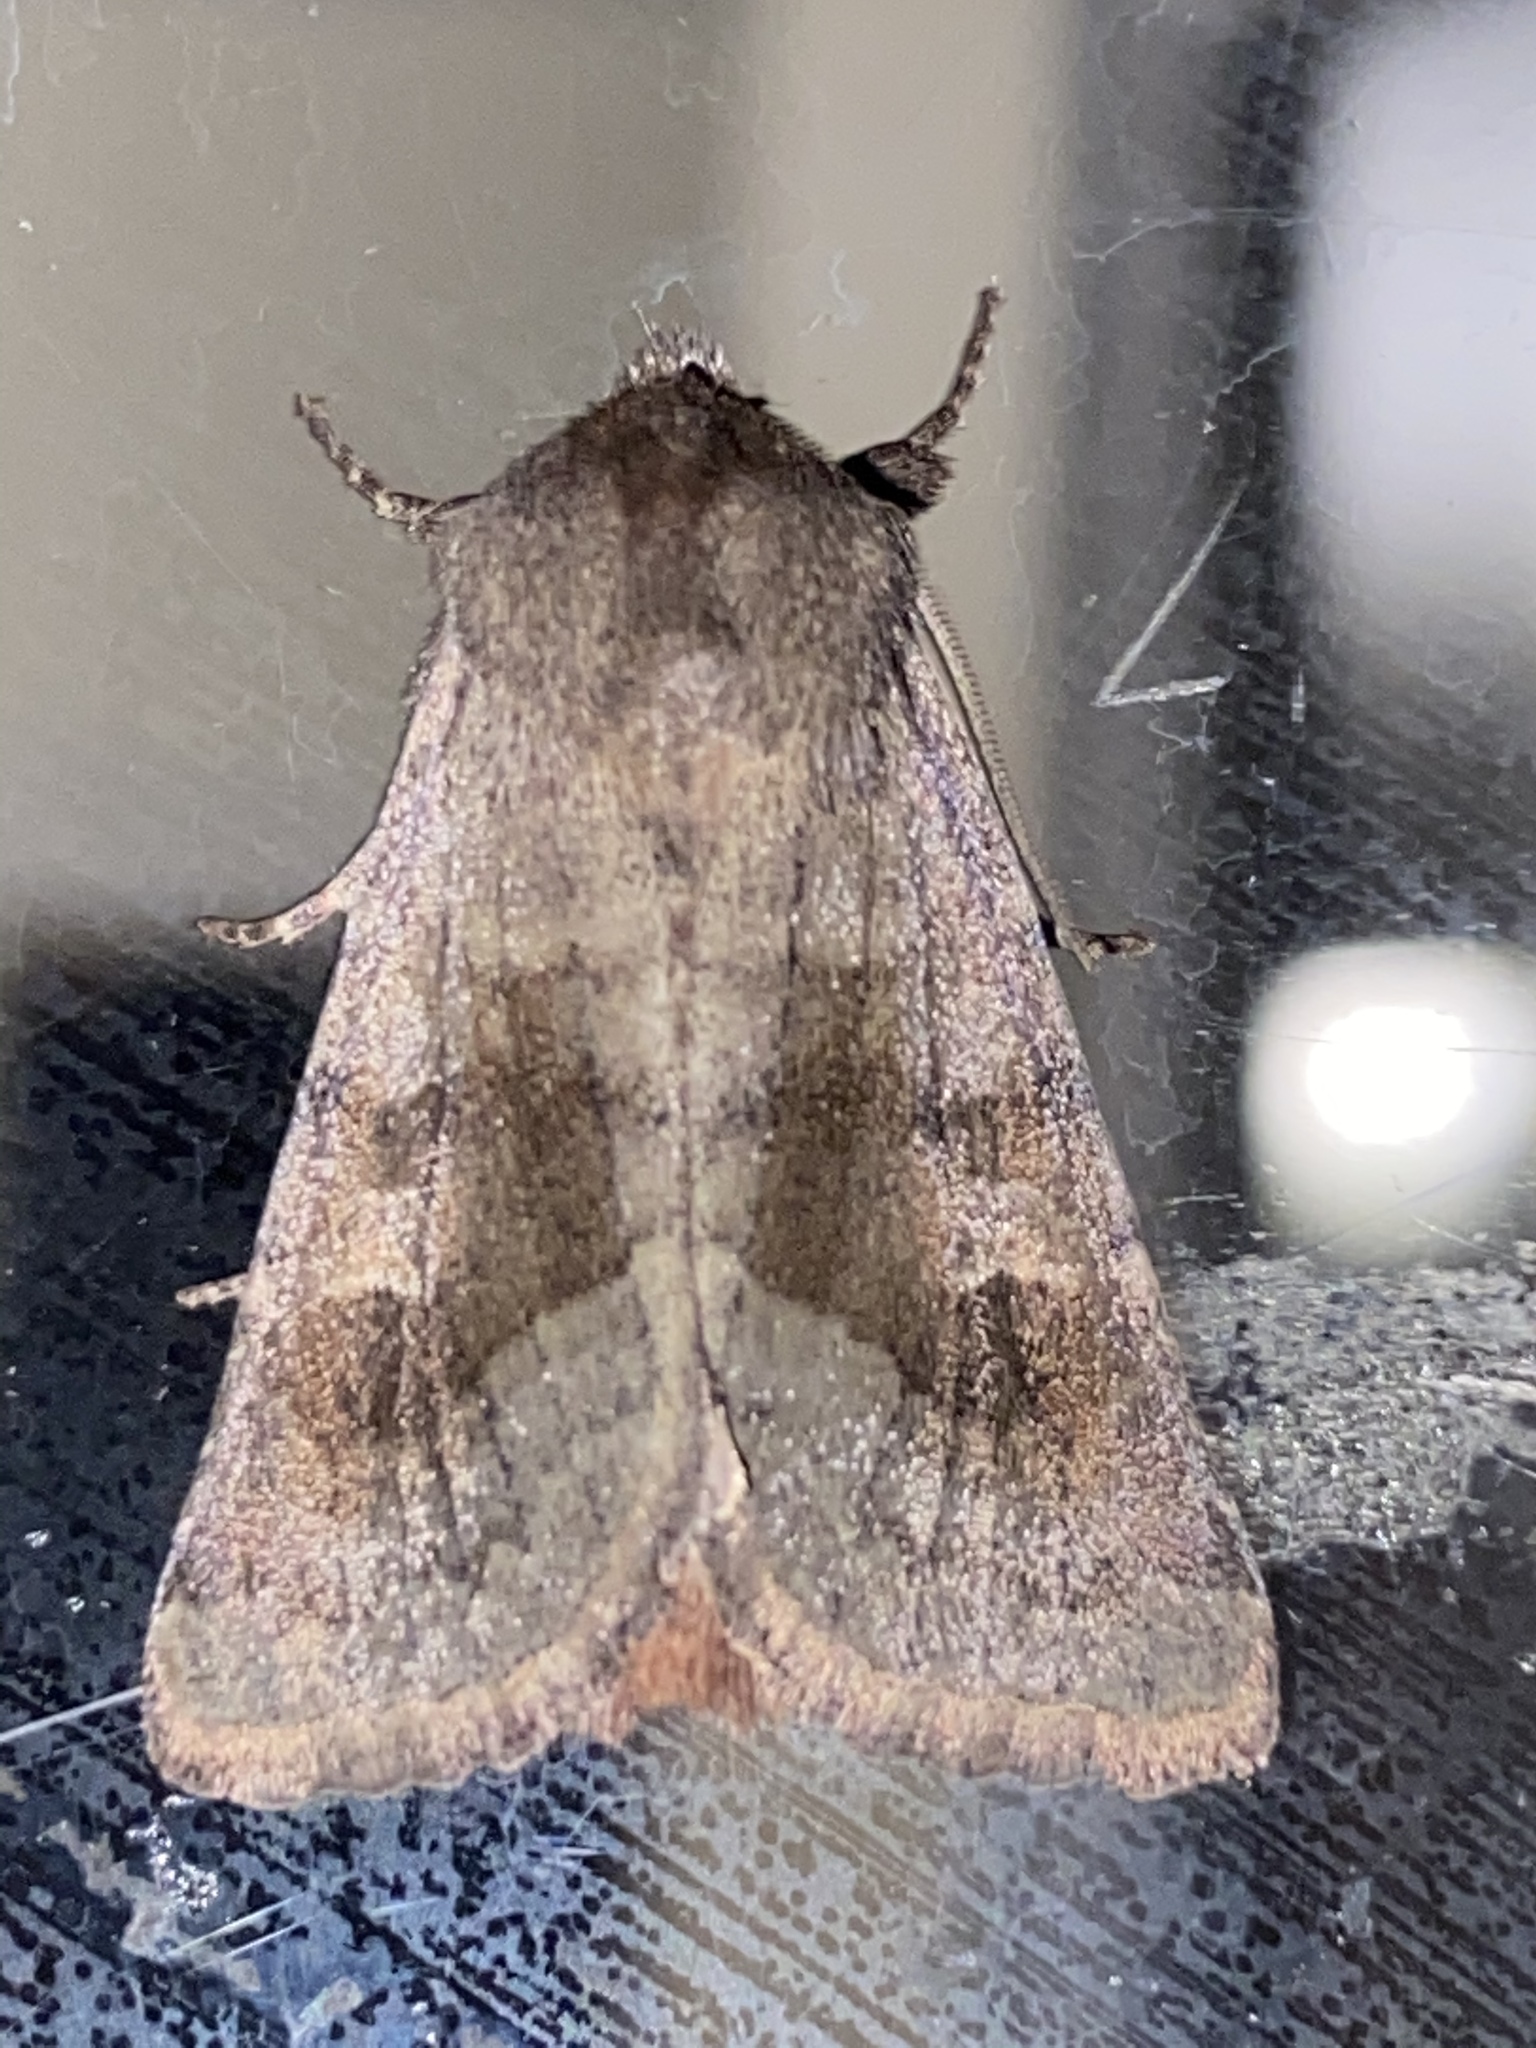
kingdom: Animalia
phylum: Arthropoda
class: Insecta
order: Lepidoptera
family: Noctuidae
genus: Nephelodes
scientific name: Nephelodes minians
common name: Bronzed cutworm
